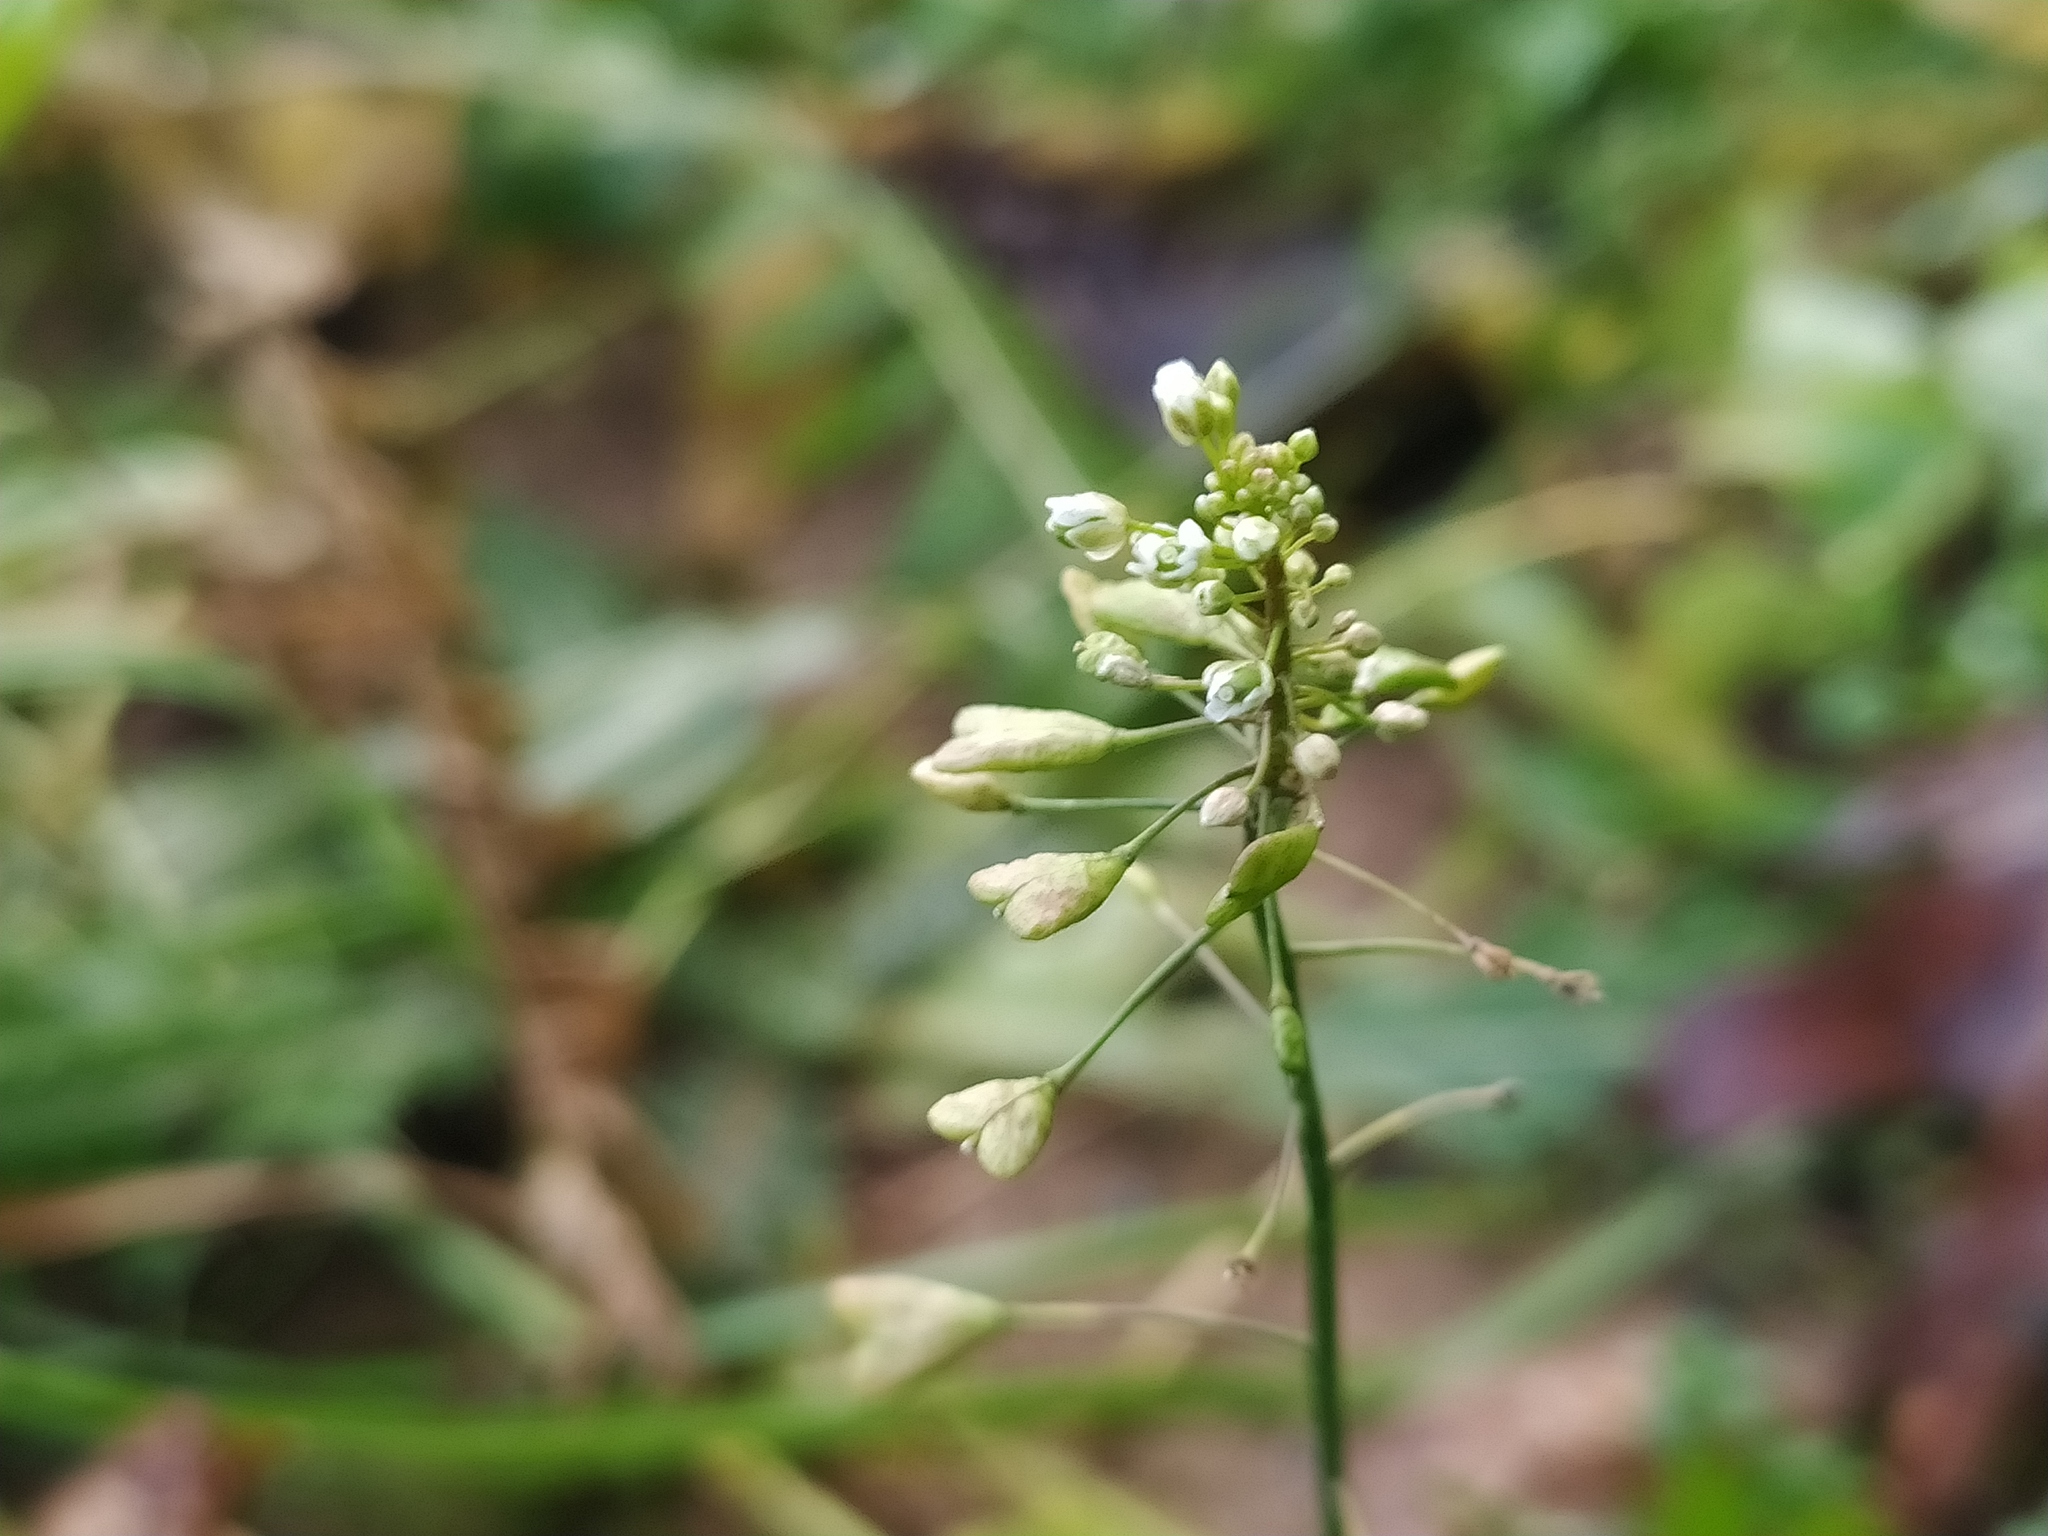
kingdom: Plantae
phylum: Tracheophyta
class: Magnoliopsida
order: Brassicales
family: Brassicaceae
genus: Capsella
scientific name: Capsella bursa-pastoris
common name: Shepherd's purse
